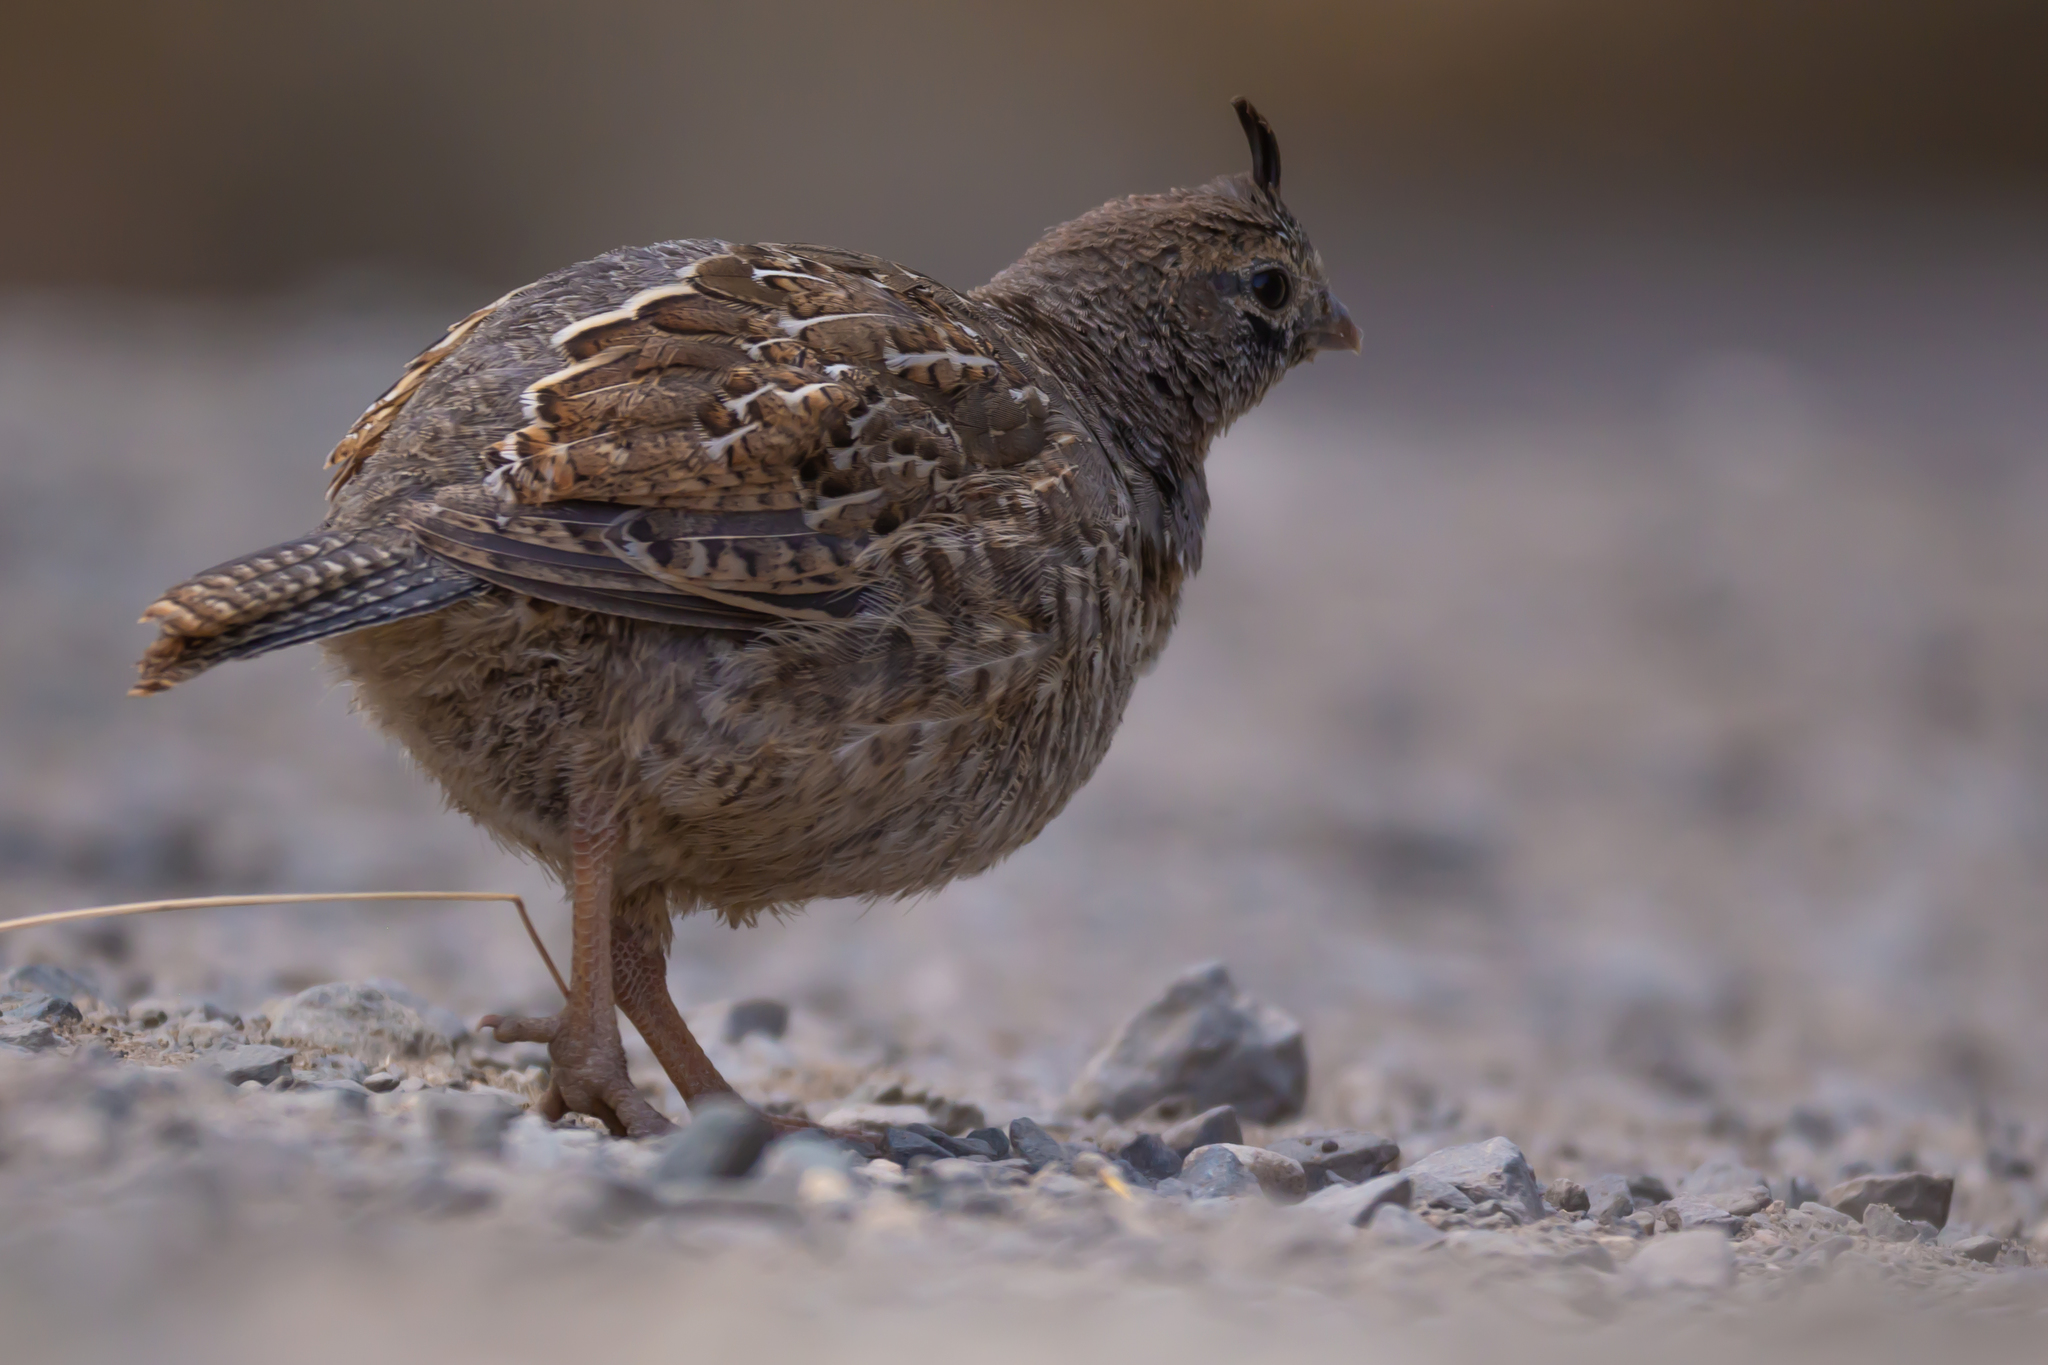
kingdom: Animalia
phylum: Chordata
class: Aves
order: Galliformes
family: Odontophoridae
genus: Callipepla
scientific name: Callipepla californica
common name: California quail
